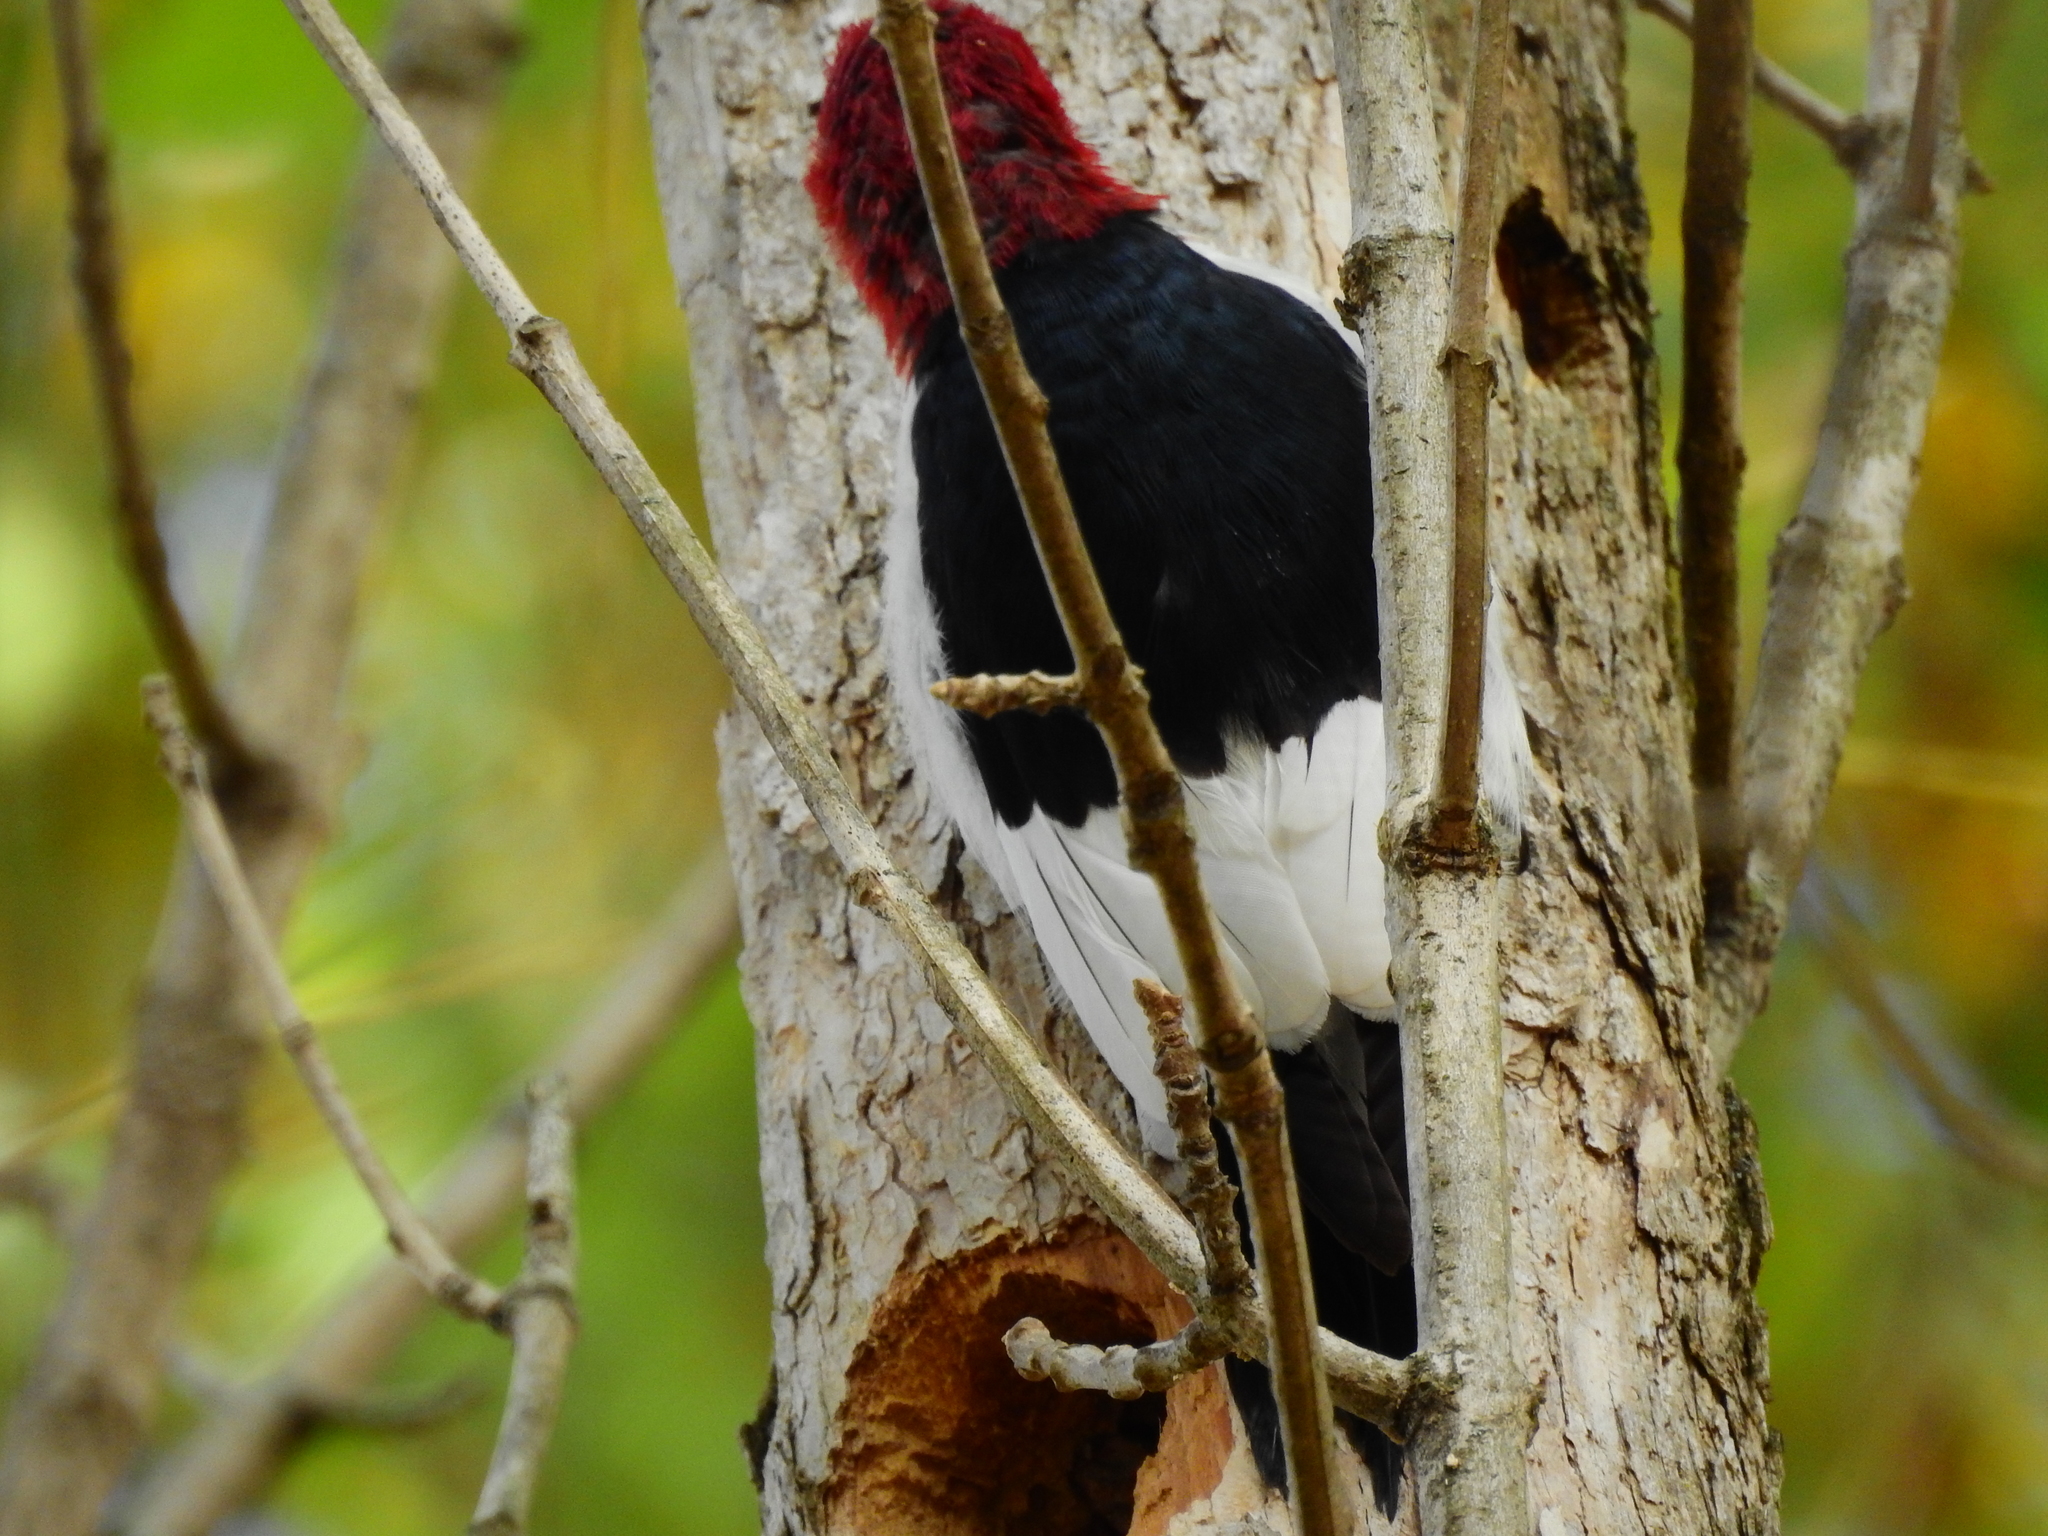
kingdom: Animalia
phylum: Chordata
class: Aves
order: Piciformes
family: Picidae
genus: Melanerpes
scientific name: Melanerpes erythrocephalus
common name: Red-headed woodpecker
